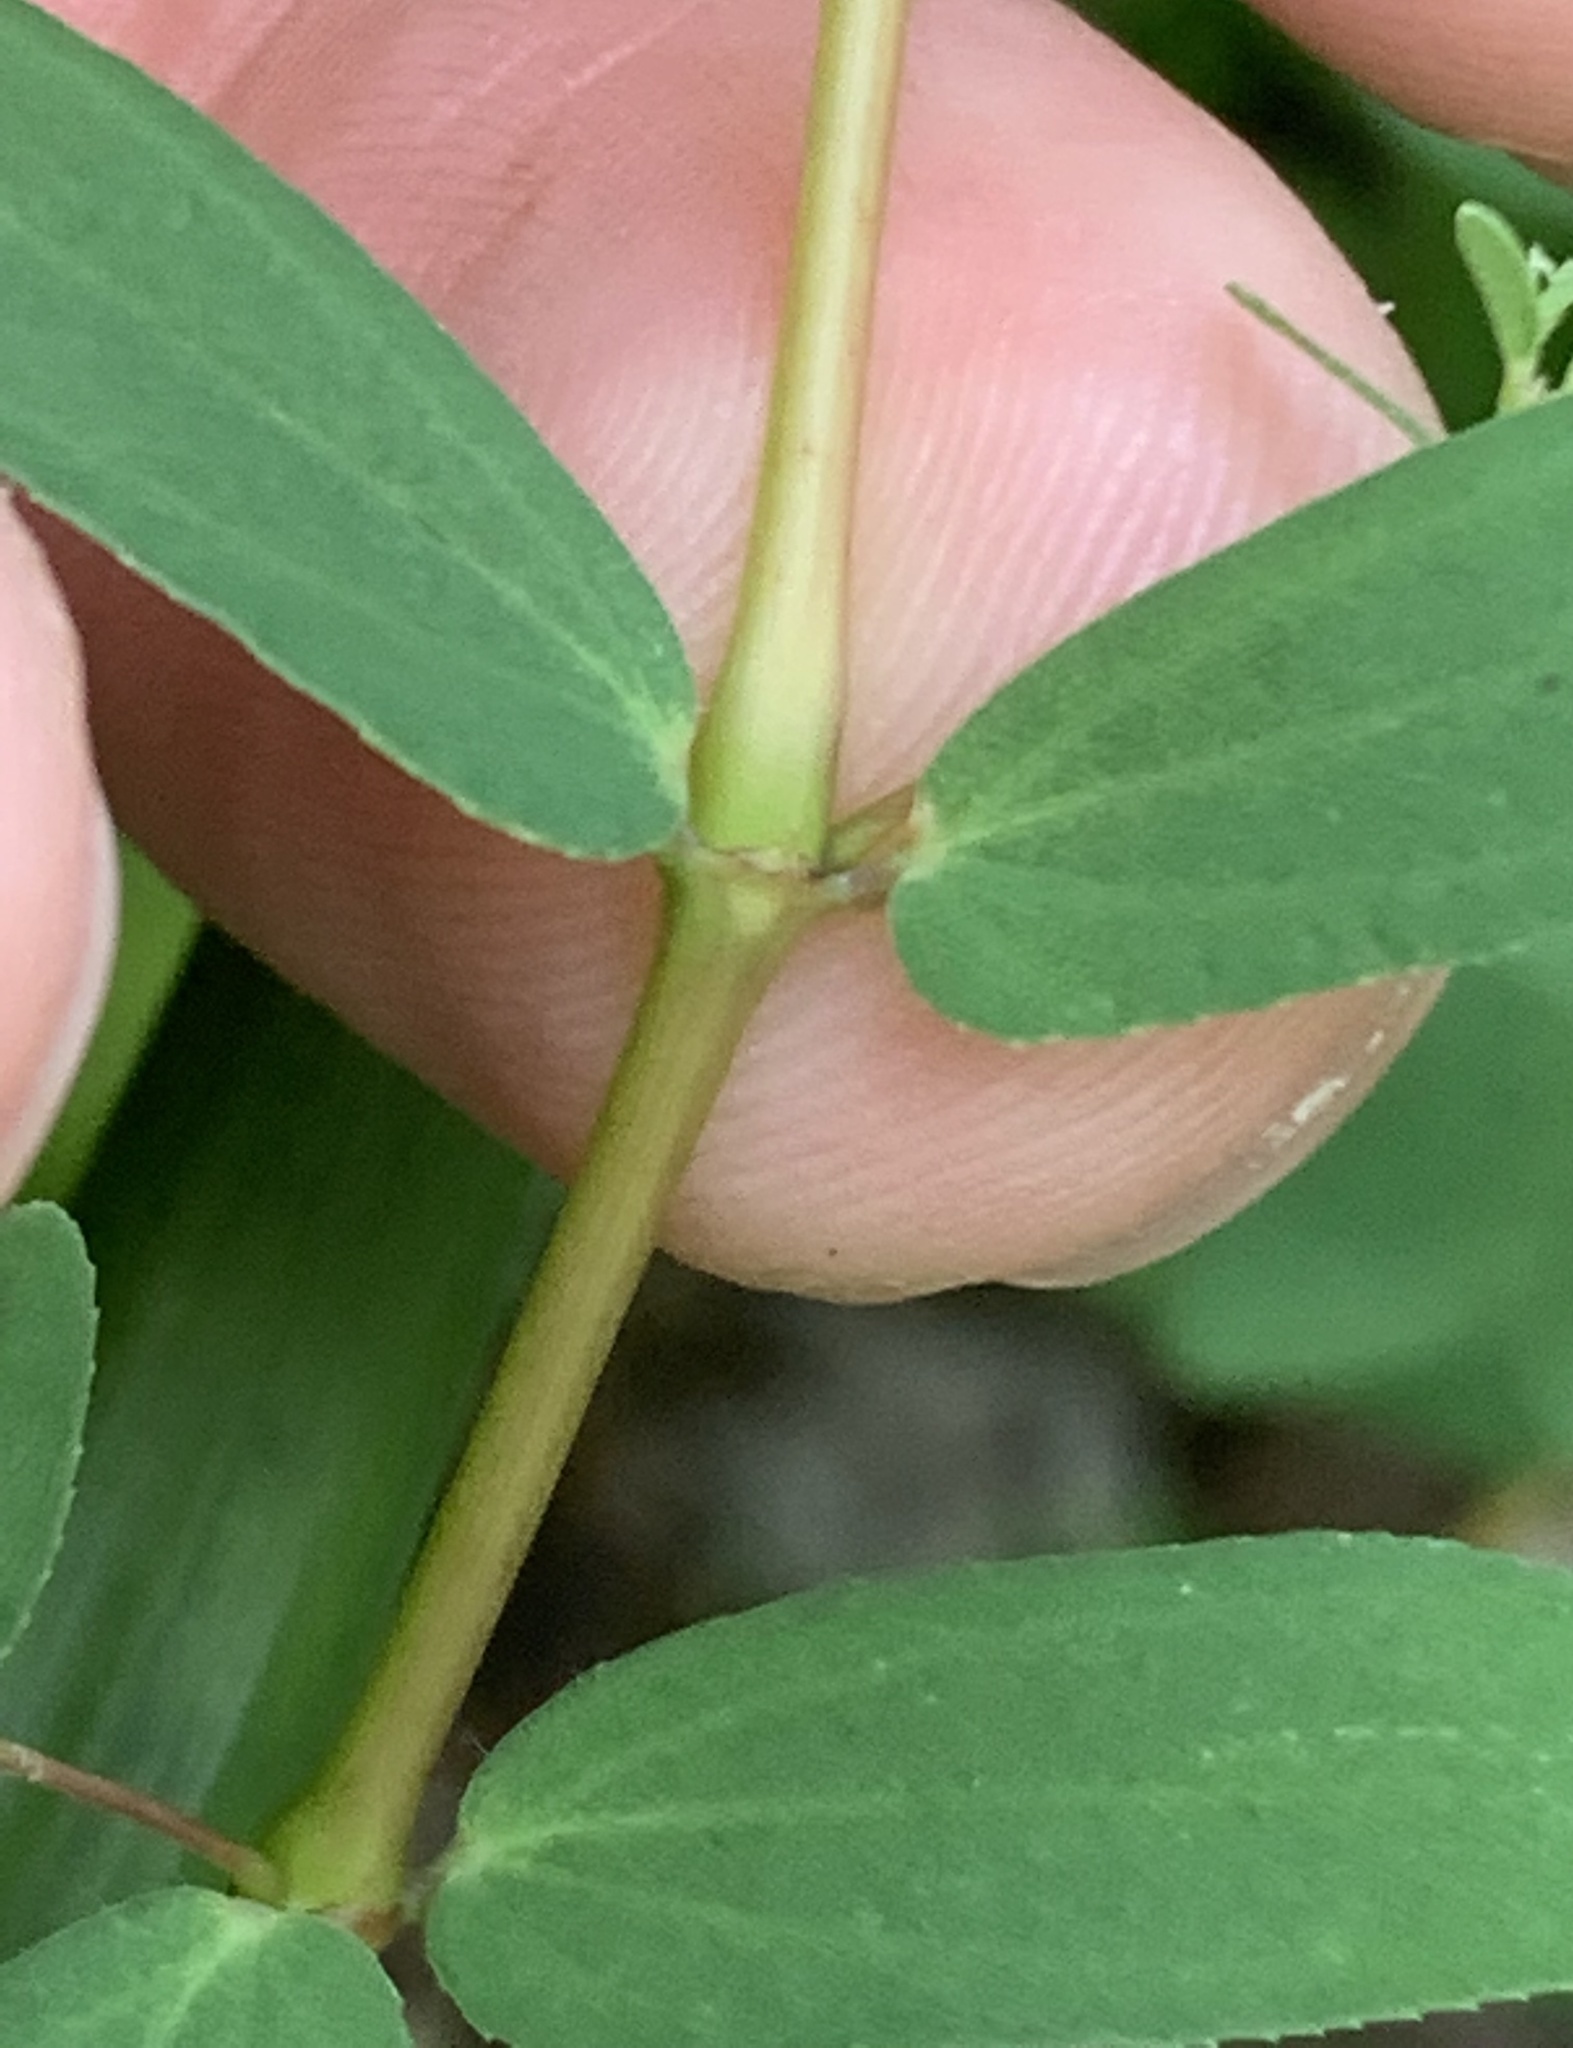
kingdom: Plantae
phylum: Tracheophyta
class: Magnoliopsida
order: Malpighiales
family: Euphorbiaceae
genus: Euphorbia
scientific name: Euphorbia hyssopifolia
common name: Hyssopleaf sandmat
